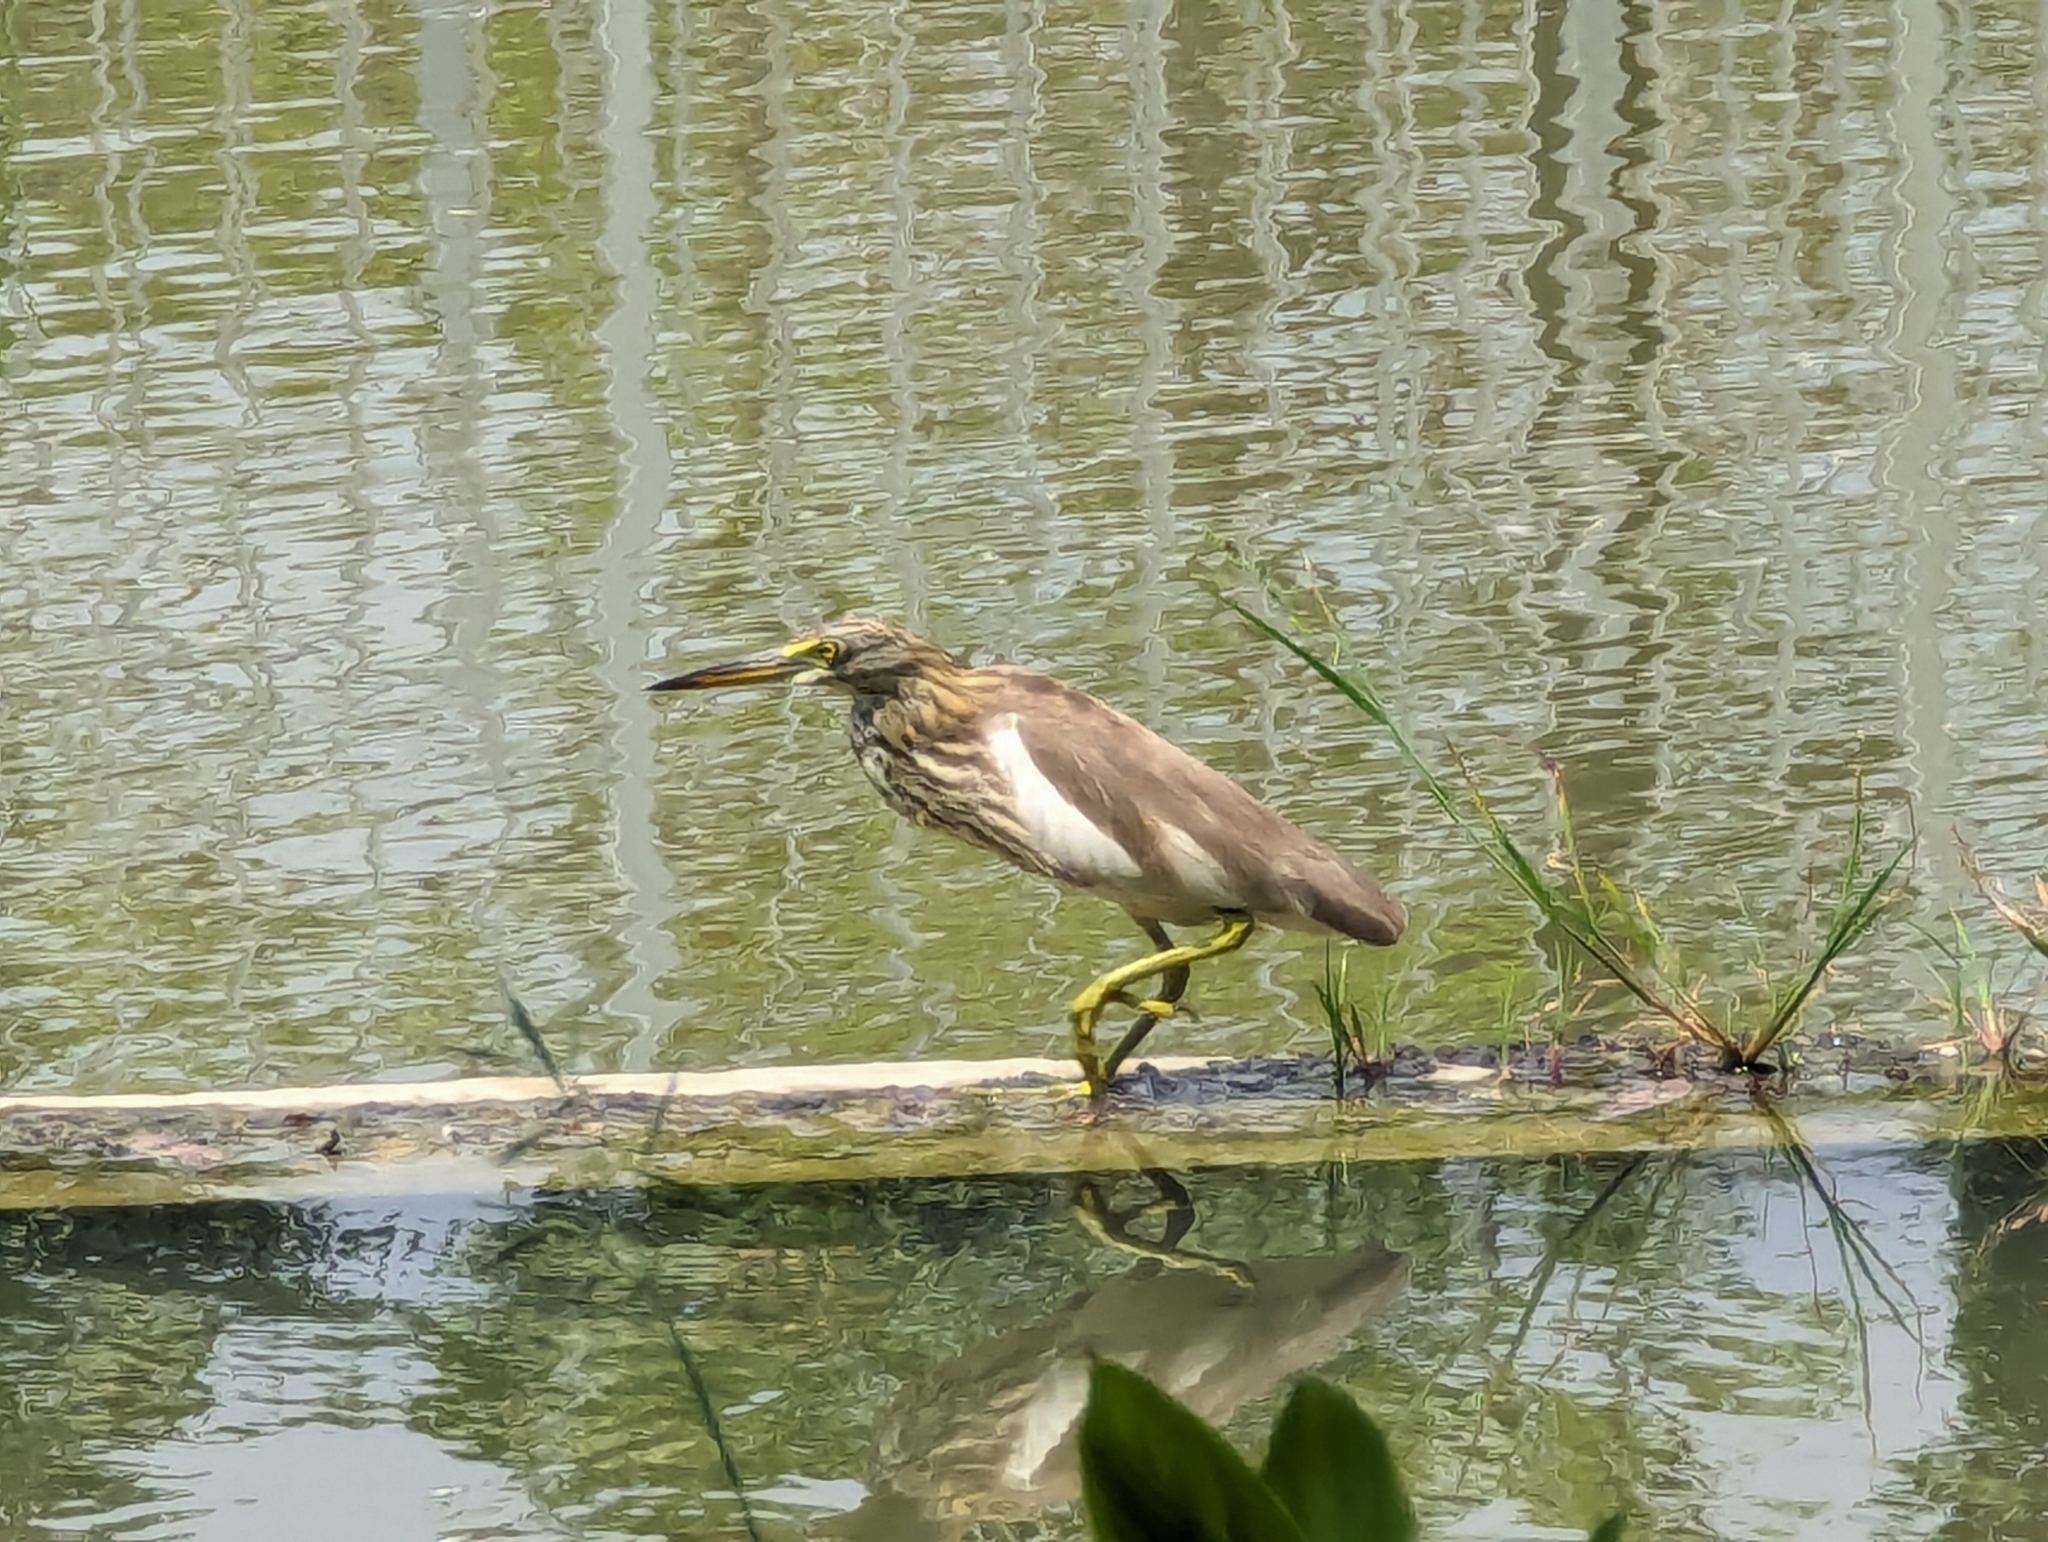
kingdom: Animalia
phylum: Chordata
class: Aves
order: Pelecaniformes
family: Ardeidae
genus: Ardeola
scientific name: Ardeola
